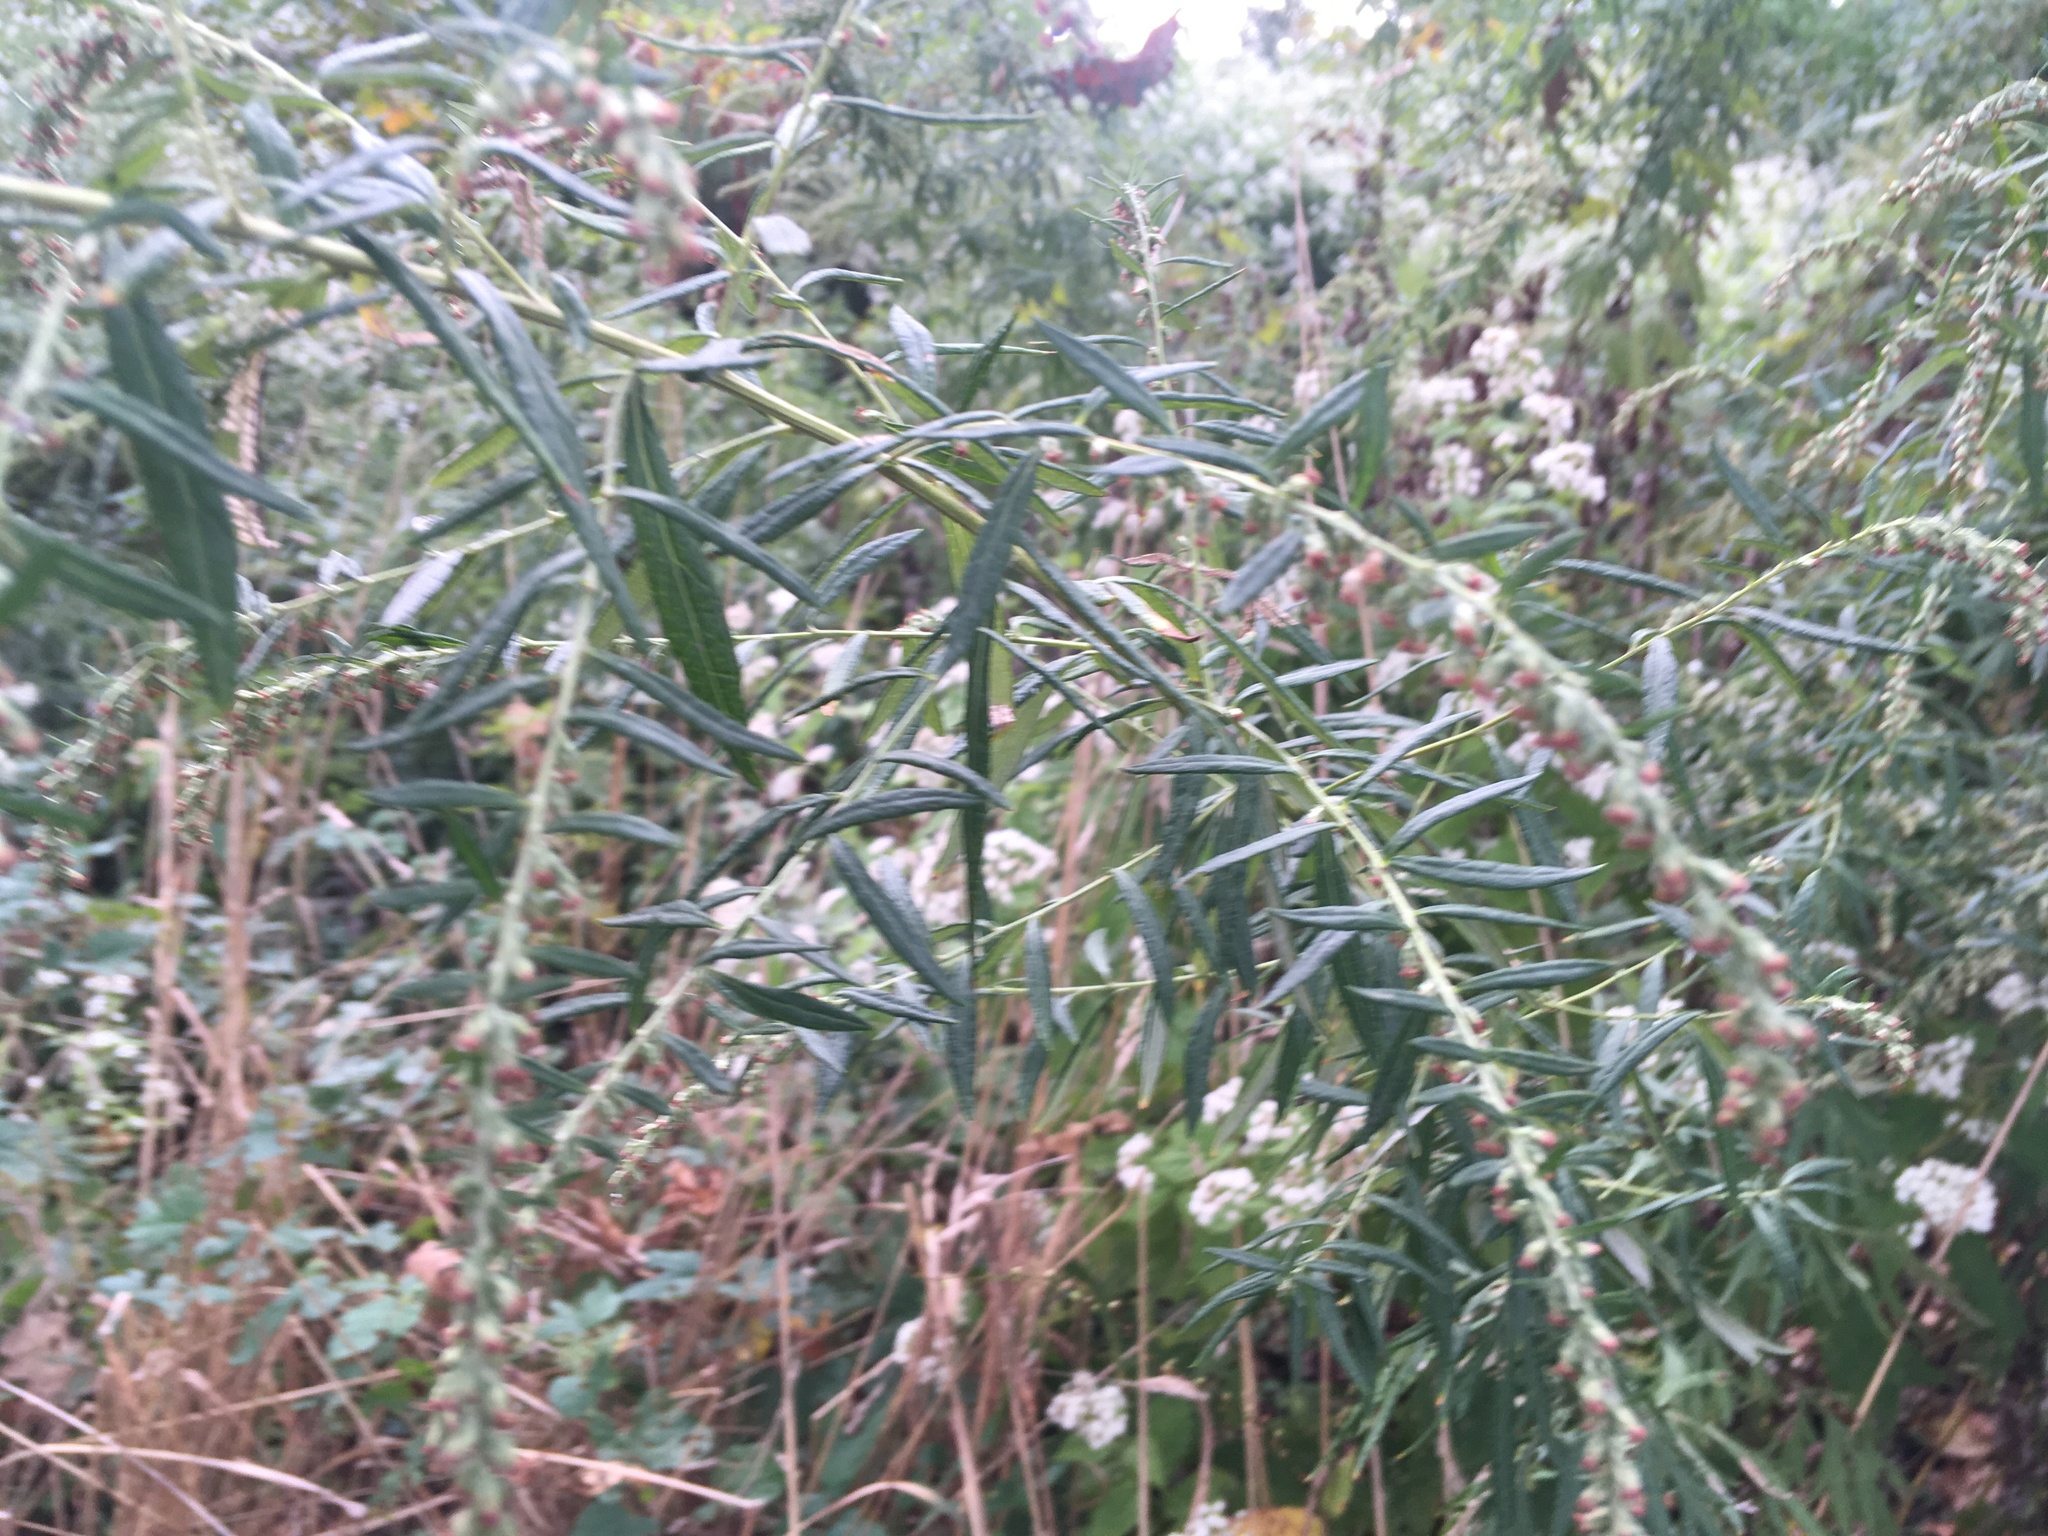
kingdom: Plantae
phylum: Tracheophyta
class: Magnoliopsida
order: Asterales
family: Asteraceae
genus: Artemisia
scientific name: Artemisia vulgaris
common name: Mugwort
